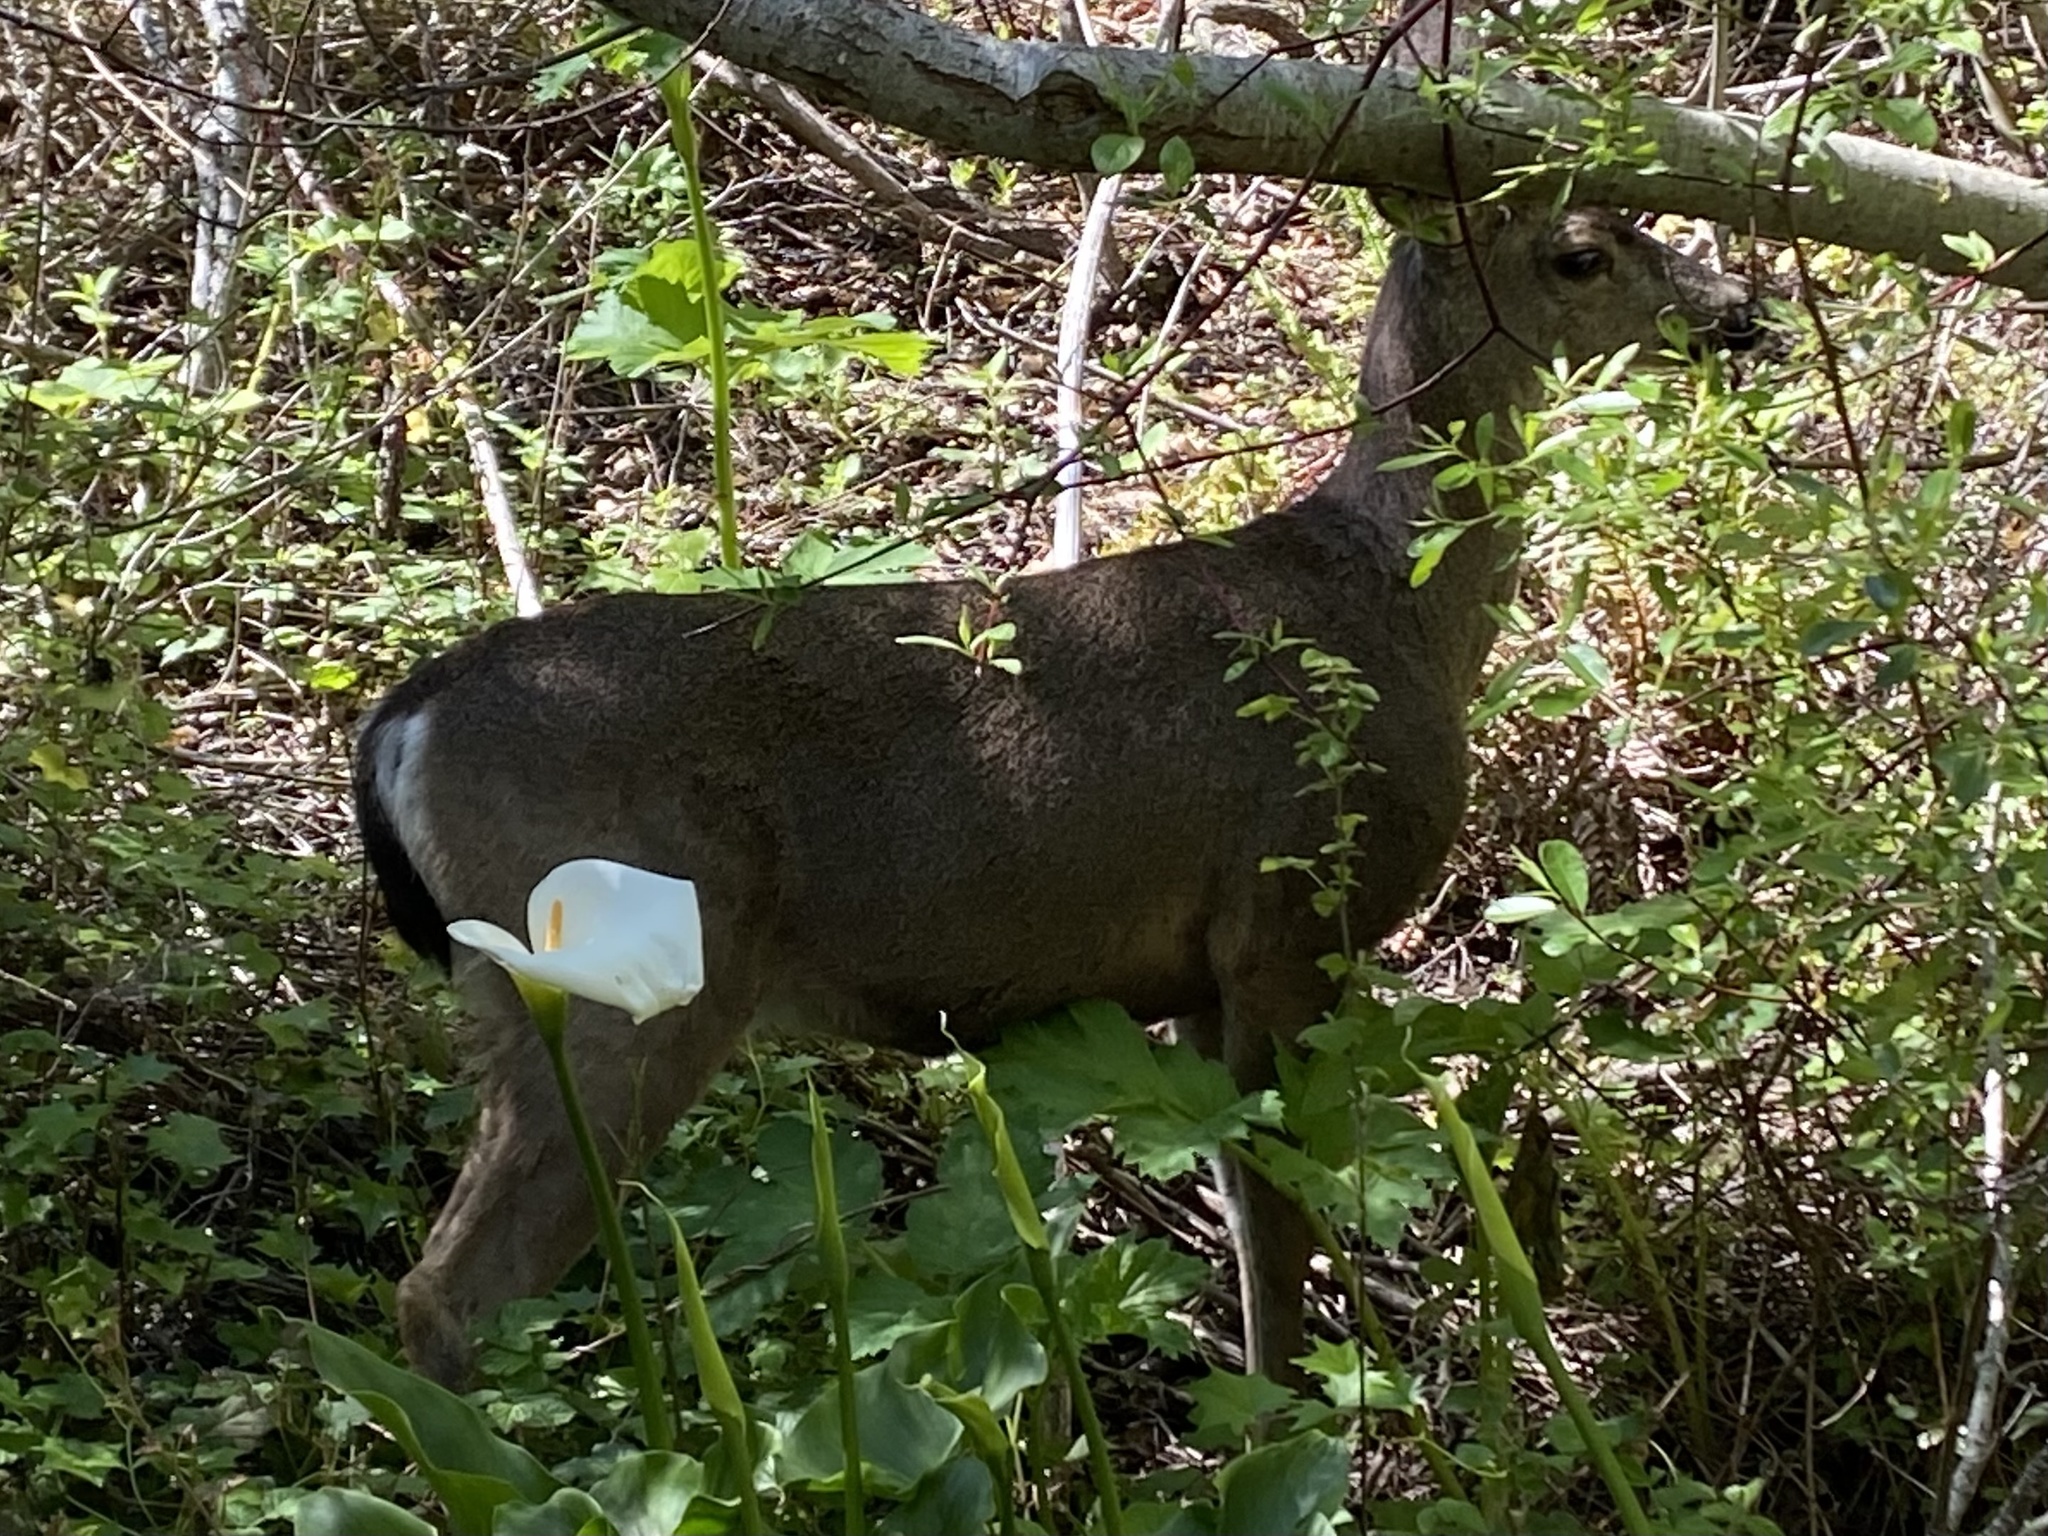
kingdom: Animalia
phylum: Chordata
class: Mammalia
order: Artiodactyla
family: Cervidae
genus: Odocoileus
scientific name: Odocoileus hemionus
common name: Mule deer
